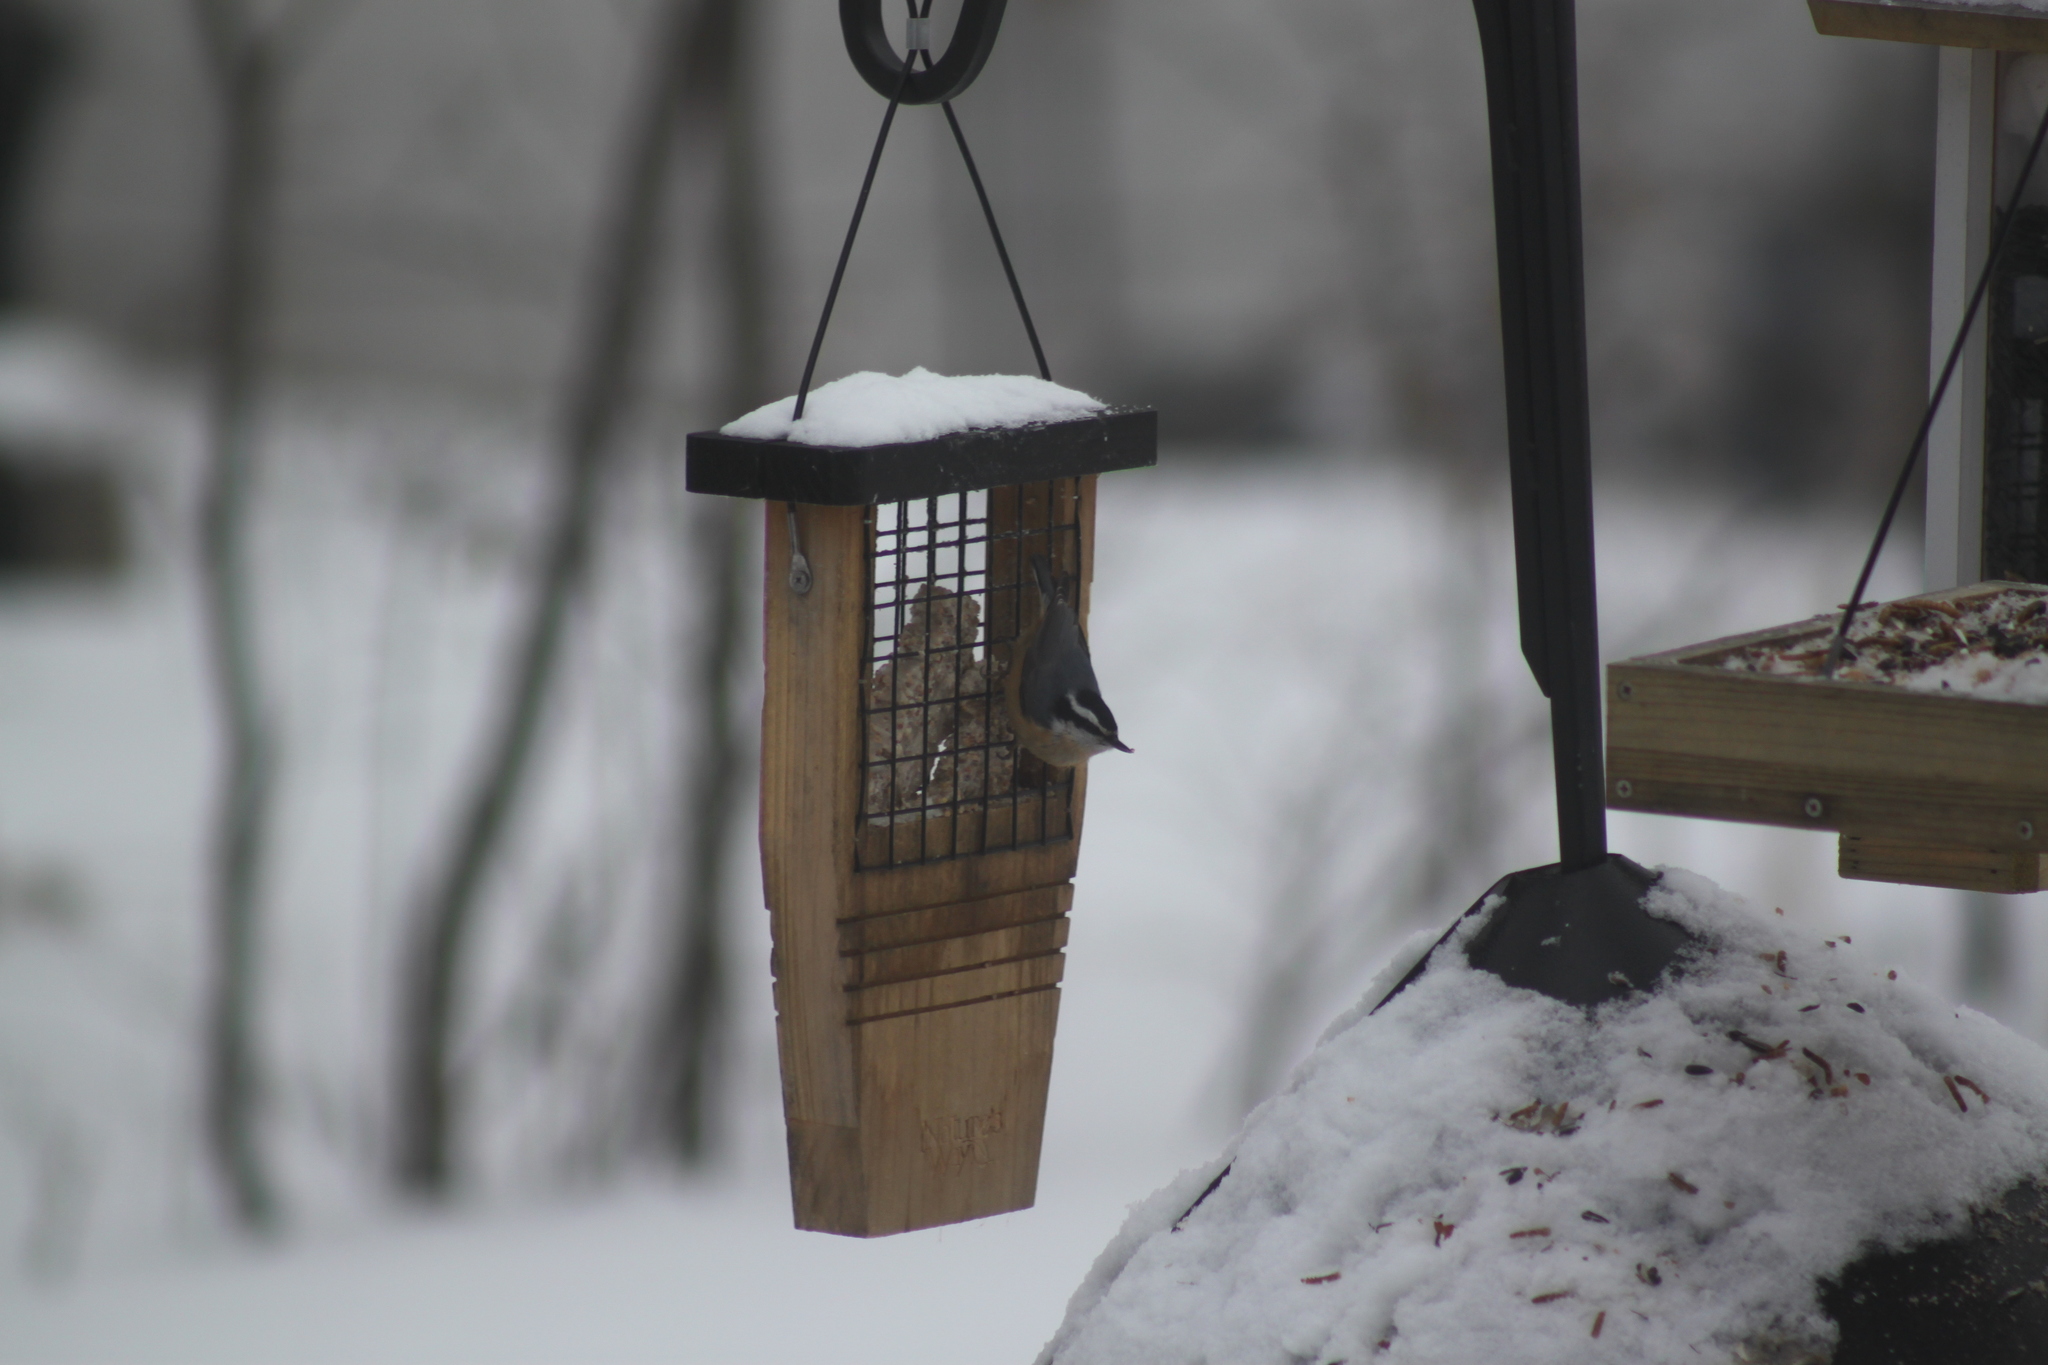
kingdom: Animalia
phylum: Chordata
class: Aves
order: Passeriformes
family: Sittidae
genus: Sitta
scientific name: Sitta canadensis
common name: Red-breasted nuthatch
